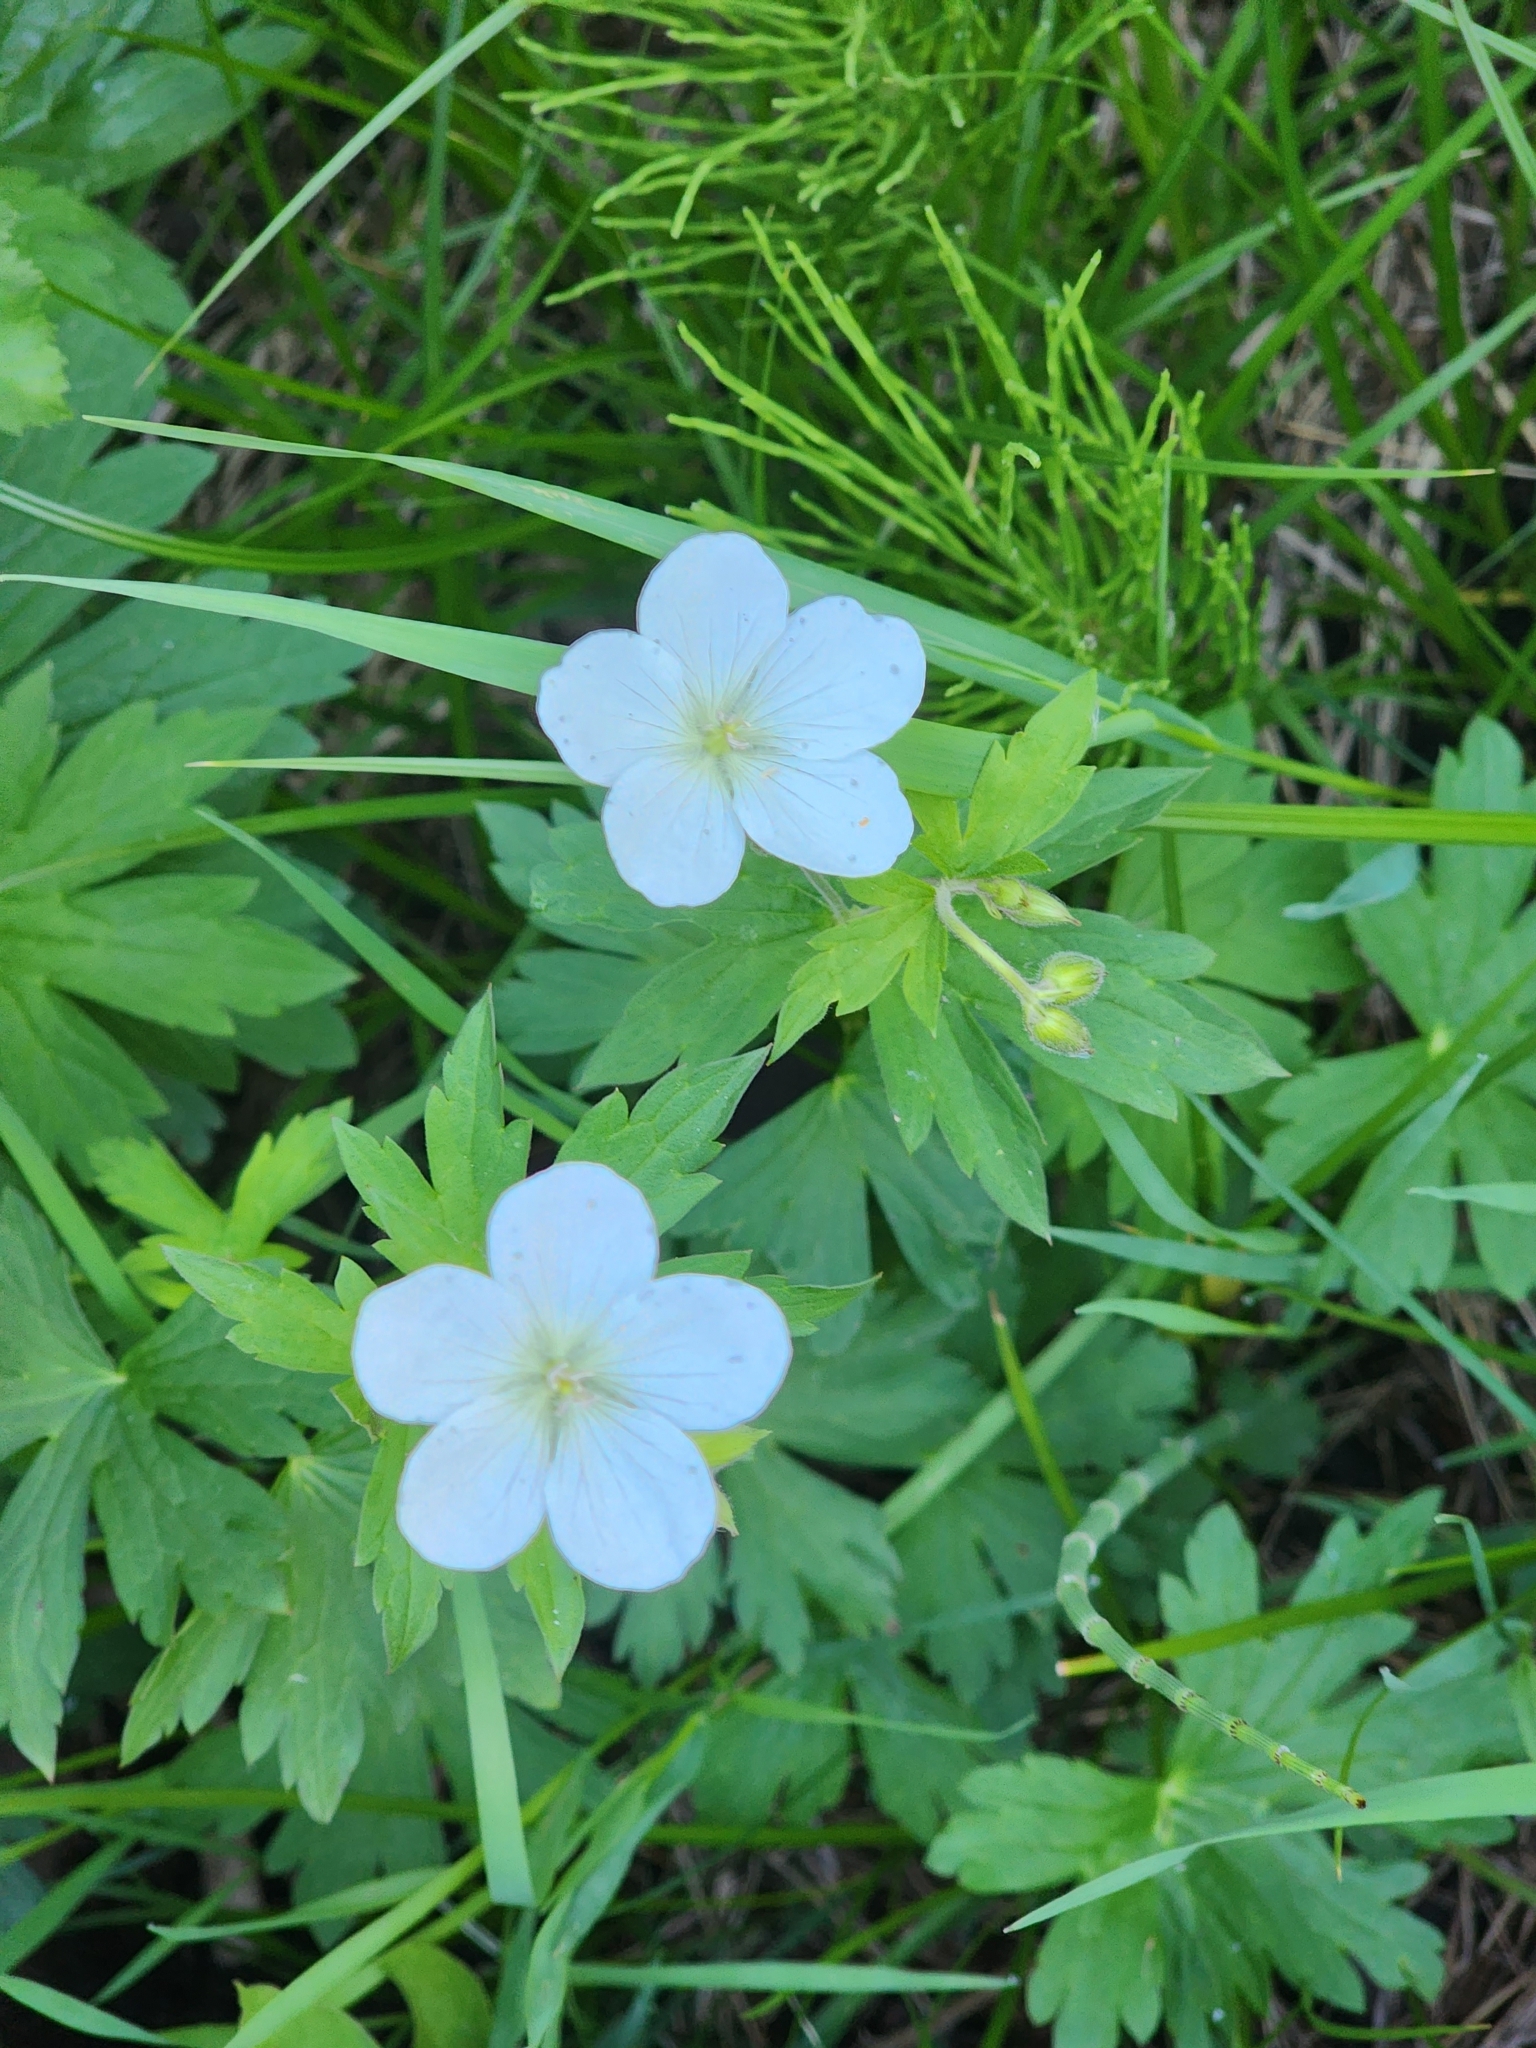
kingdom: Plantae
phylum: Tracheophyta
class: Magnoliopsida
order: Geraniales
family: Geraniaceae
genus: Geranium
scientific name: Geranium richardsonii
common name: Richardson's crane's-bill
